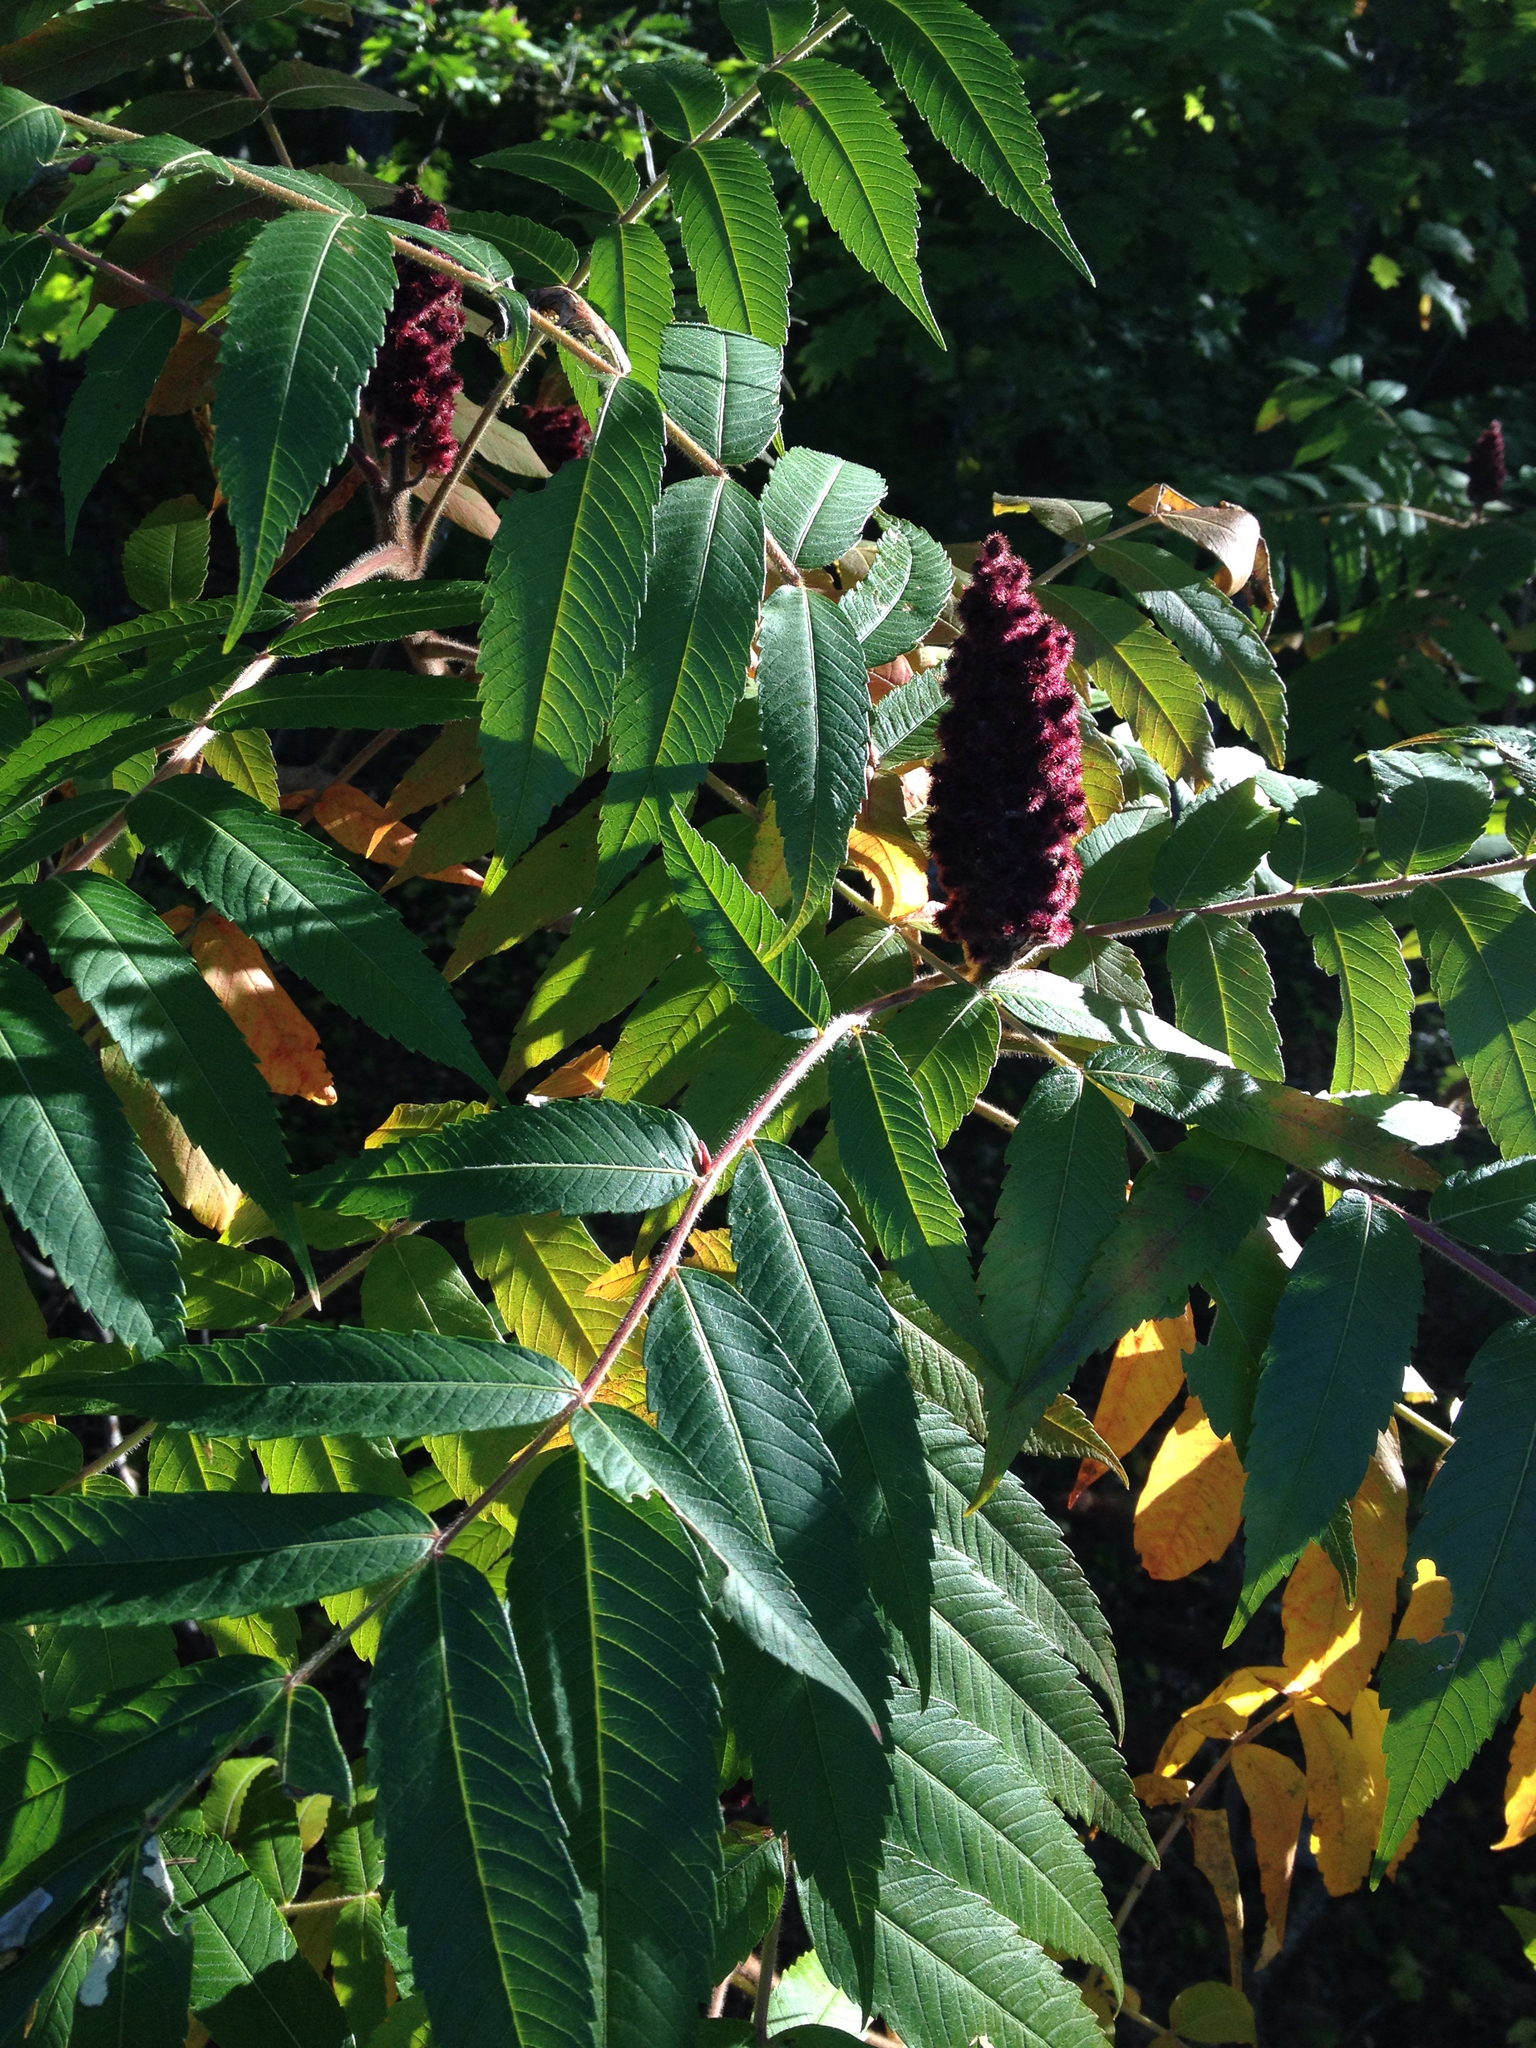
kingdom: Plantae
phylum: Tracheophyta
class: Magnoliopsida
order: Sapindales
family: Anacardiaceae
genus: Rhus
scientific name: Rhus typhina
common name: Staghorn sumac
